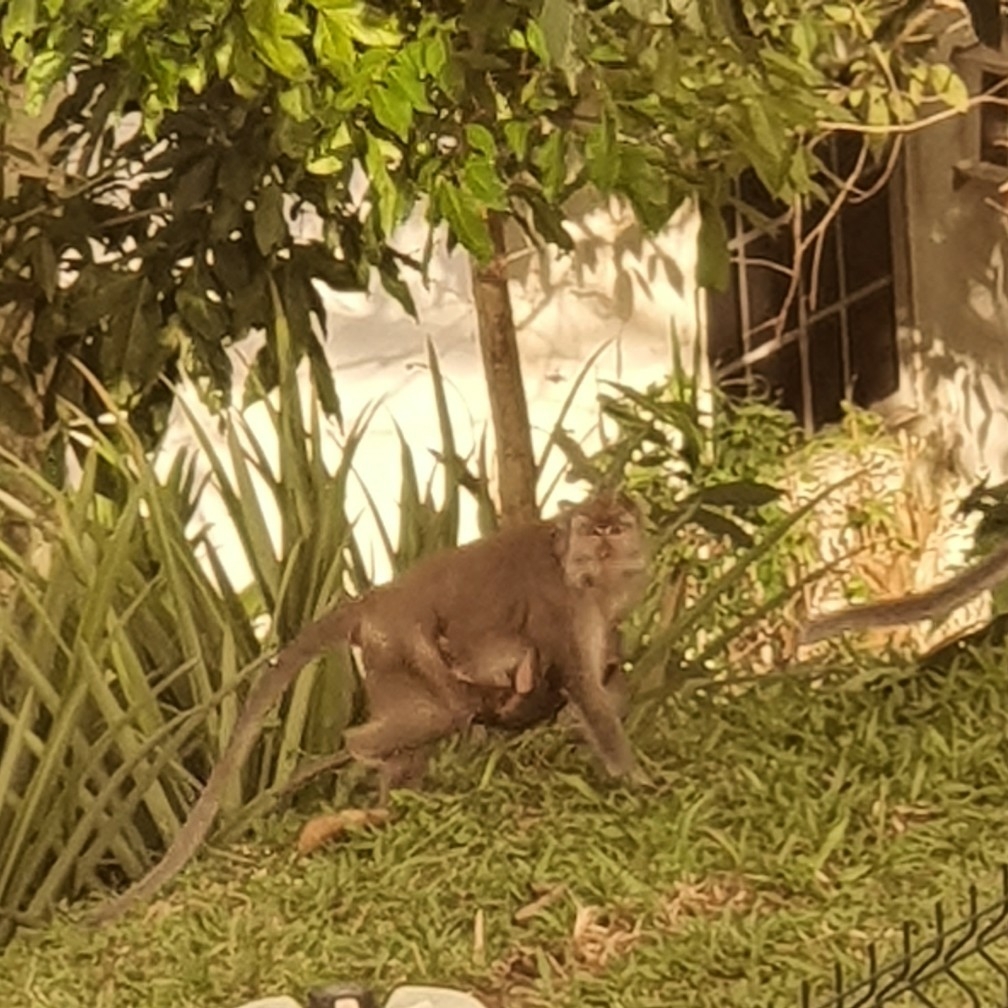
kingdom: Animalia
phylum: Chordata
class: Mammalia
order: Primates
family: Cercopithecidae
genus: Macaca
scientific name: Macaca fascicularis
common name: Crab-eating macaque
